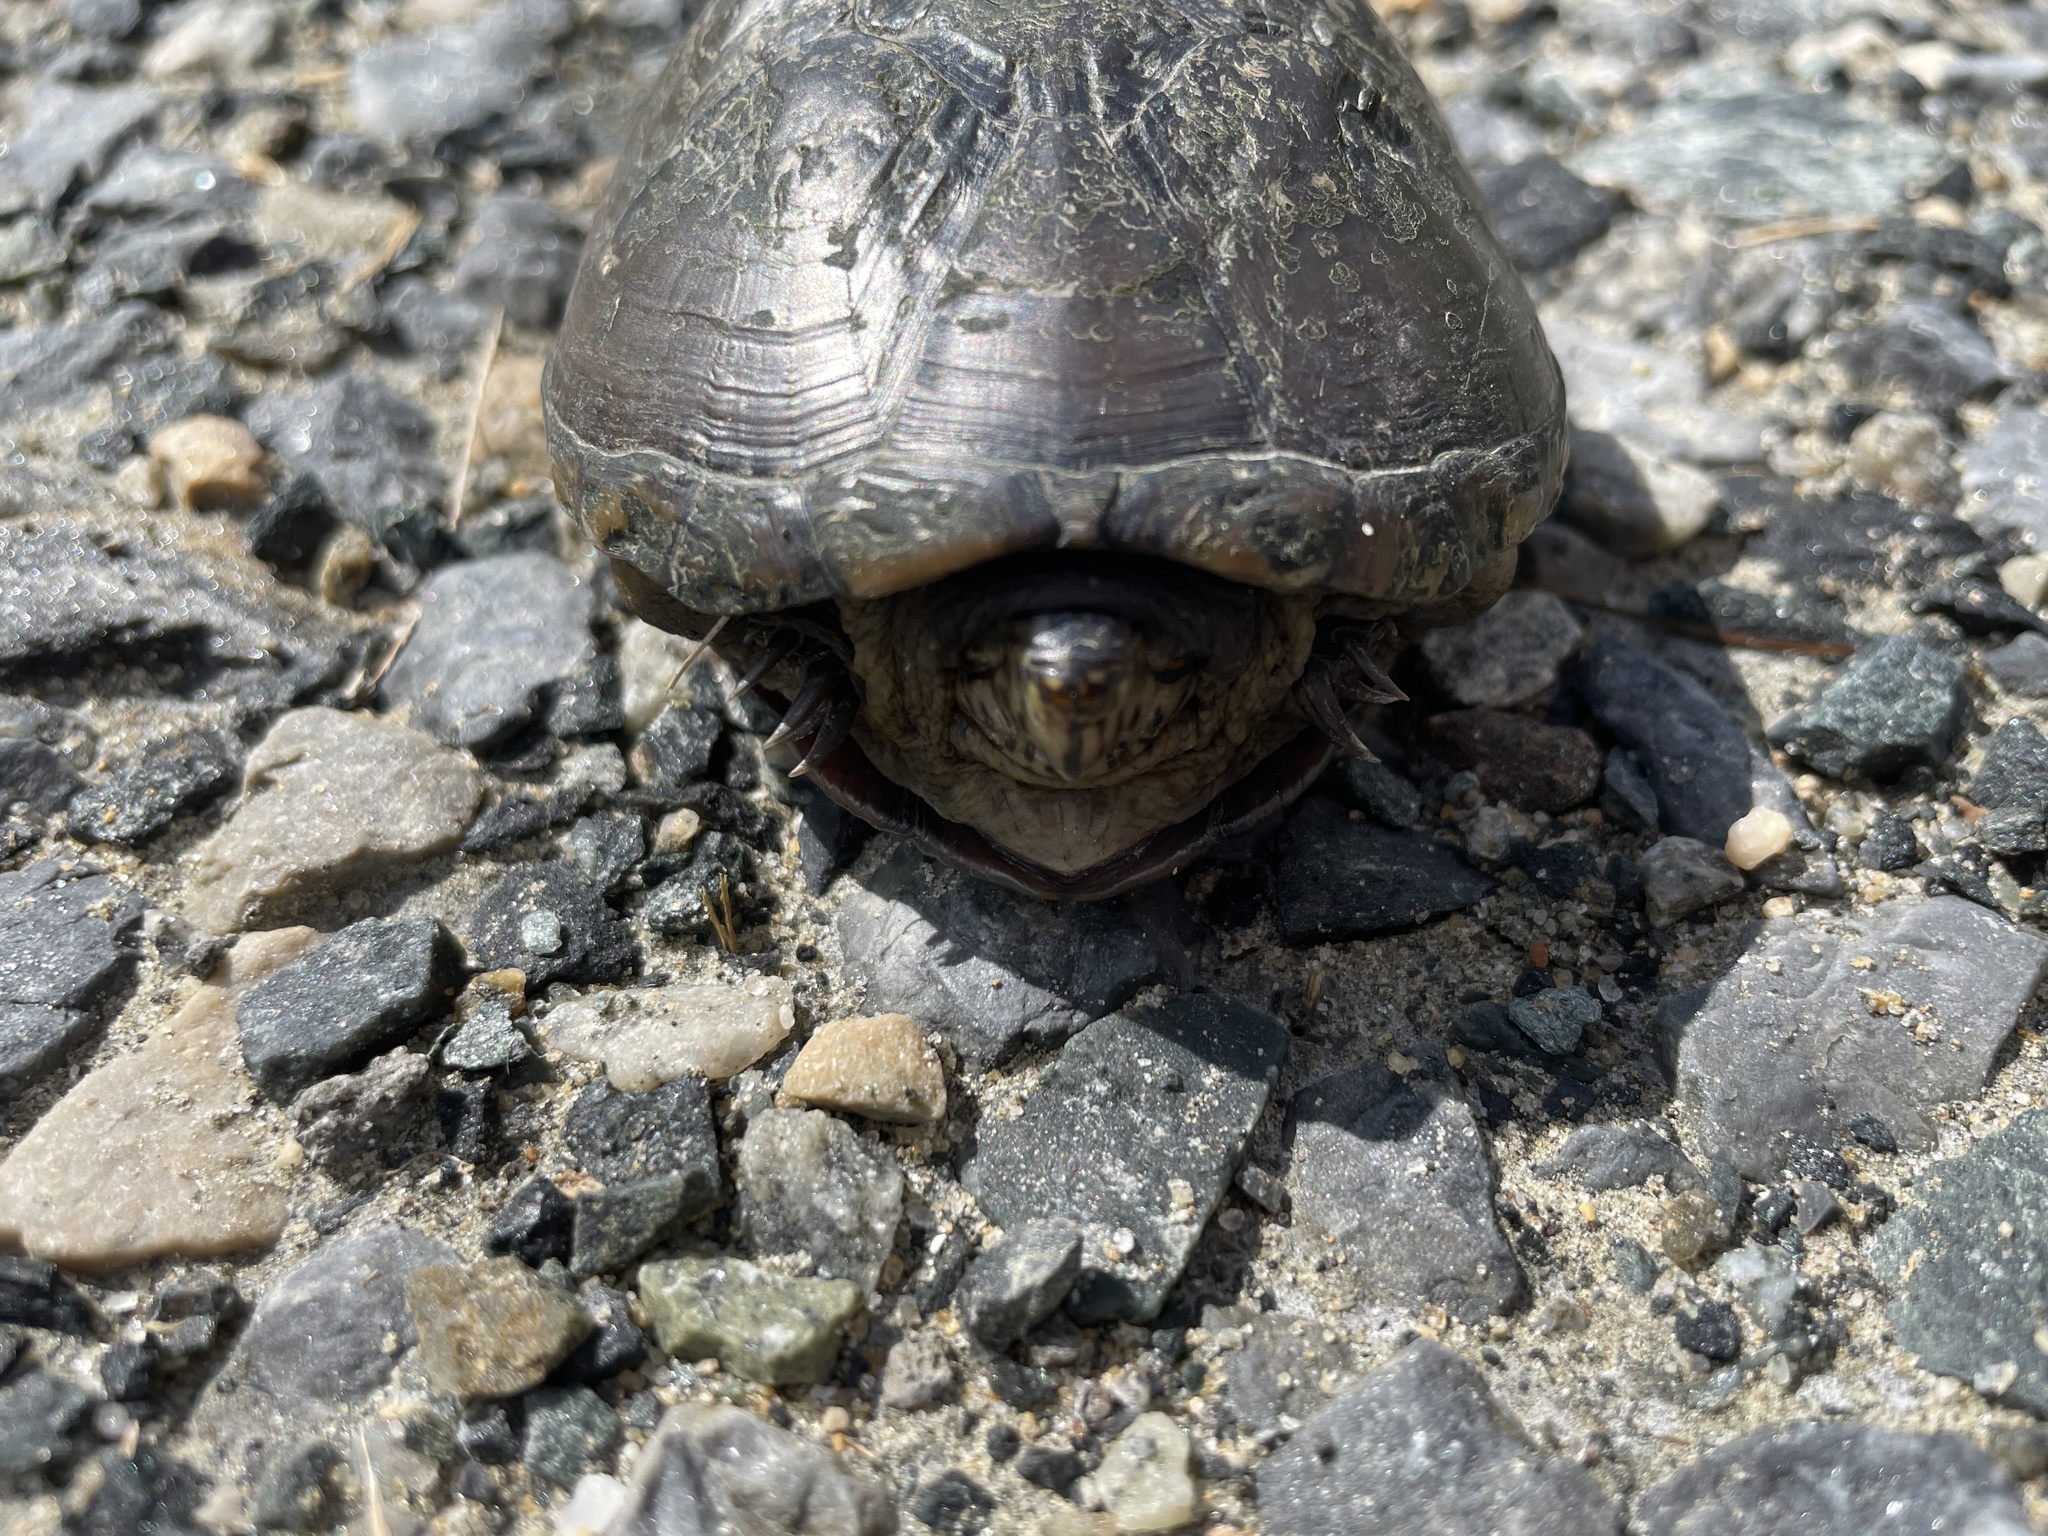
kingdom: Animalia
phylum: Chordata
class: Testudines
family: Kinosternidae
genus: Kinosternon
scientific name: Kinosternon subrubrum
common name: Eastern mud turtle
